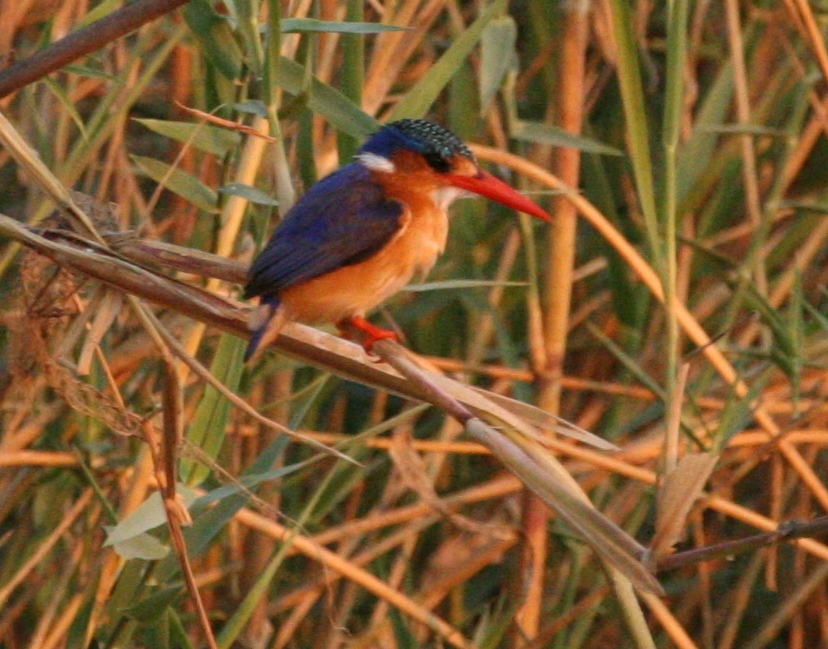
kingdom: Animalia
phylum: Chordata
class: Aves
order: Coraciiformes
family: Alcedinidae
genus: Corythornis
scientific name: Corythornis cristatus
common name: Malachite kingfisher
